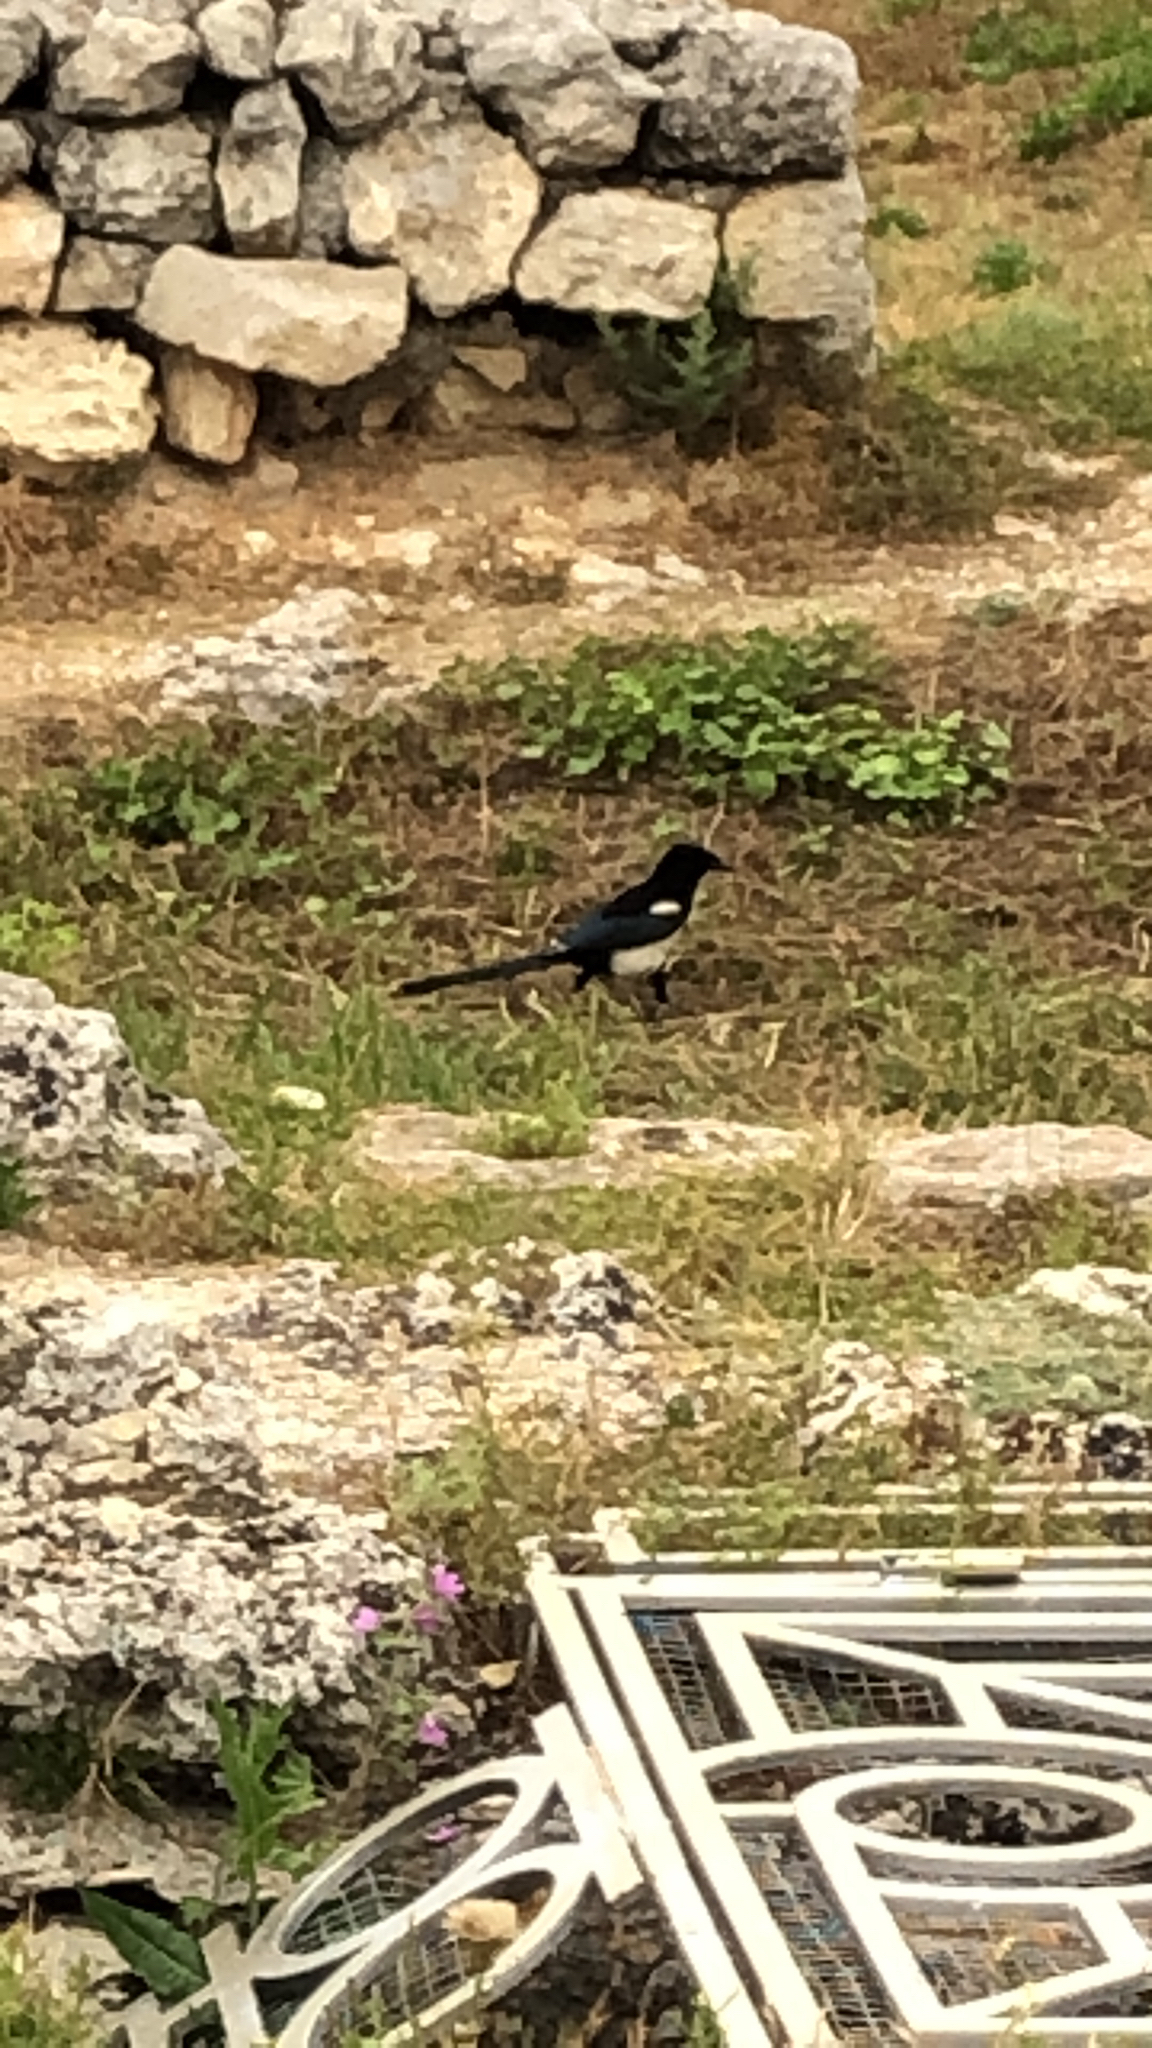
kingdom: Animalia
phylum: Chordata
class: Aves
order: Passeriformes
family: Corvidae
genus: Pica
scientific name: Pica pica
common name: Eurasian magpie
